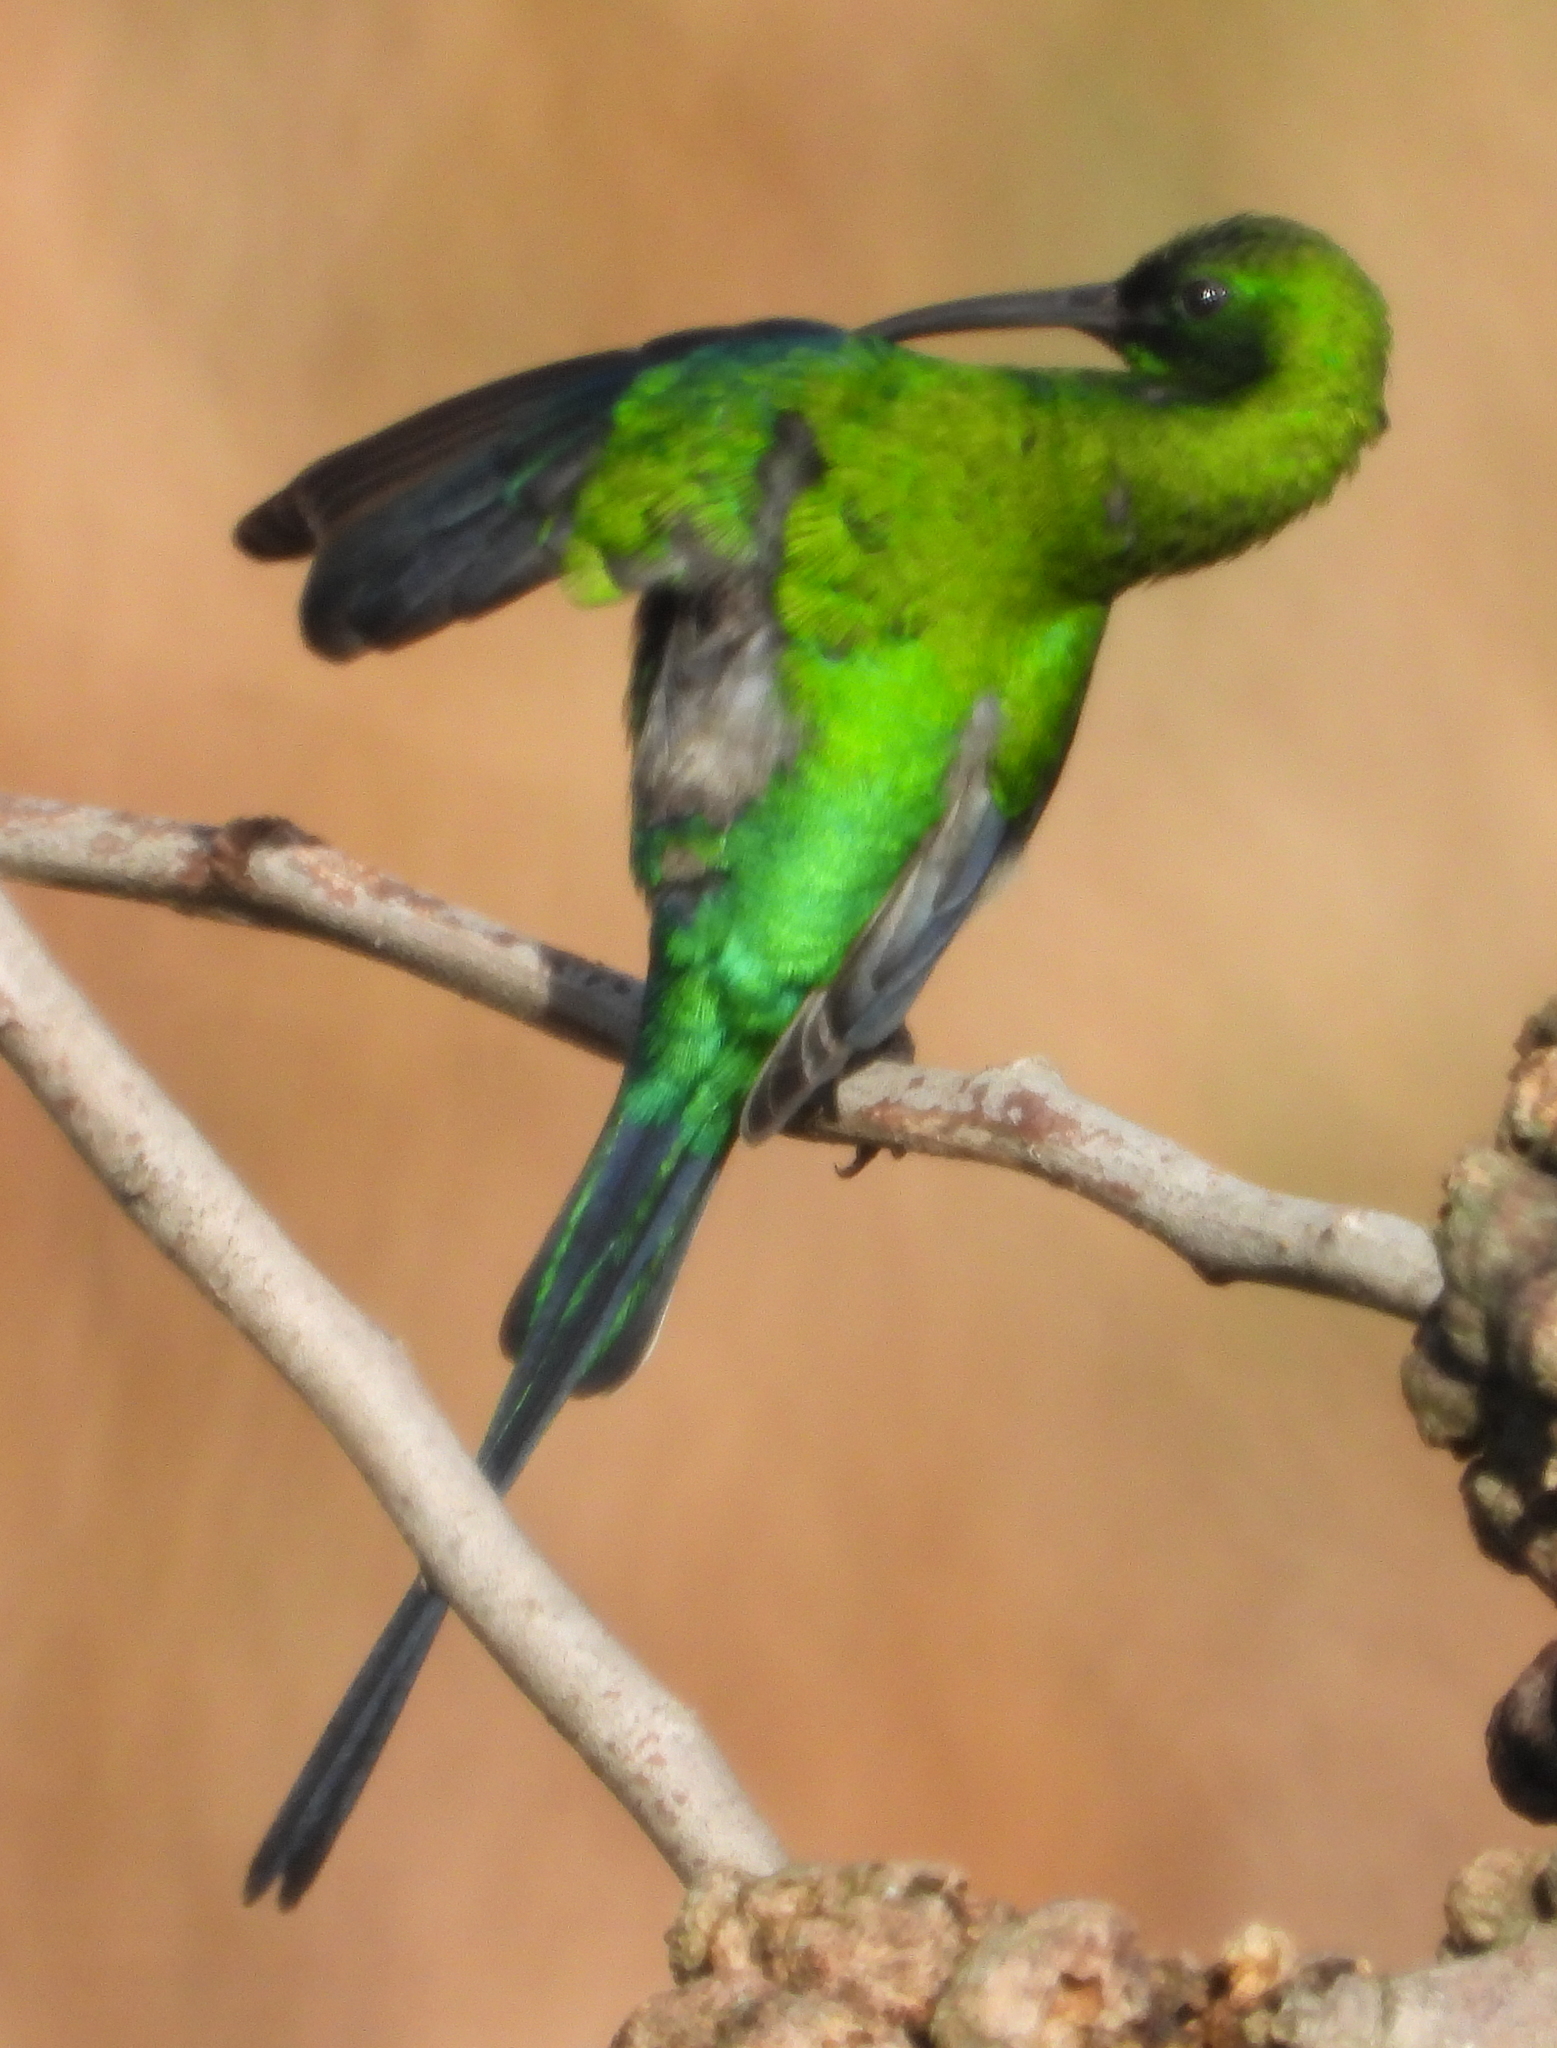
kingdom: Animalia
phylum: Chordata
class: Aves
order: Passeriformes
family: Nectariniidae
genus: Nectarinia
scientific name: Nectarinia famosa
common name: Malachite sunbird
